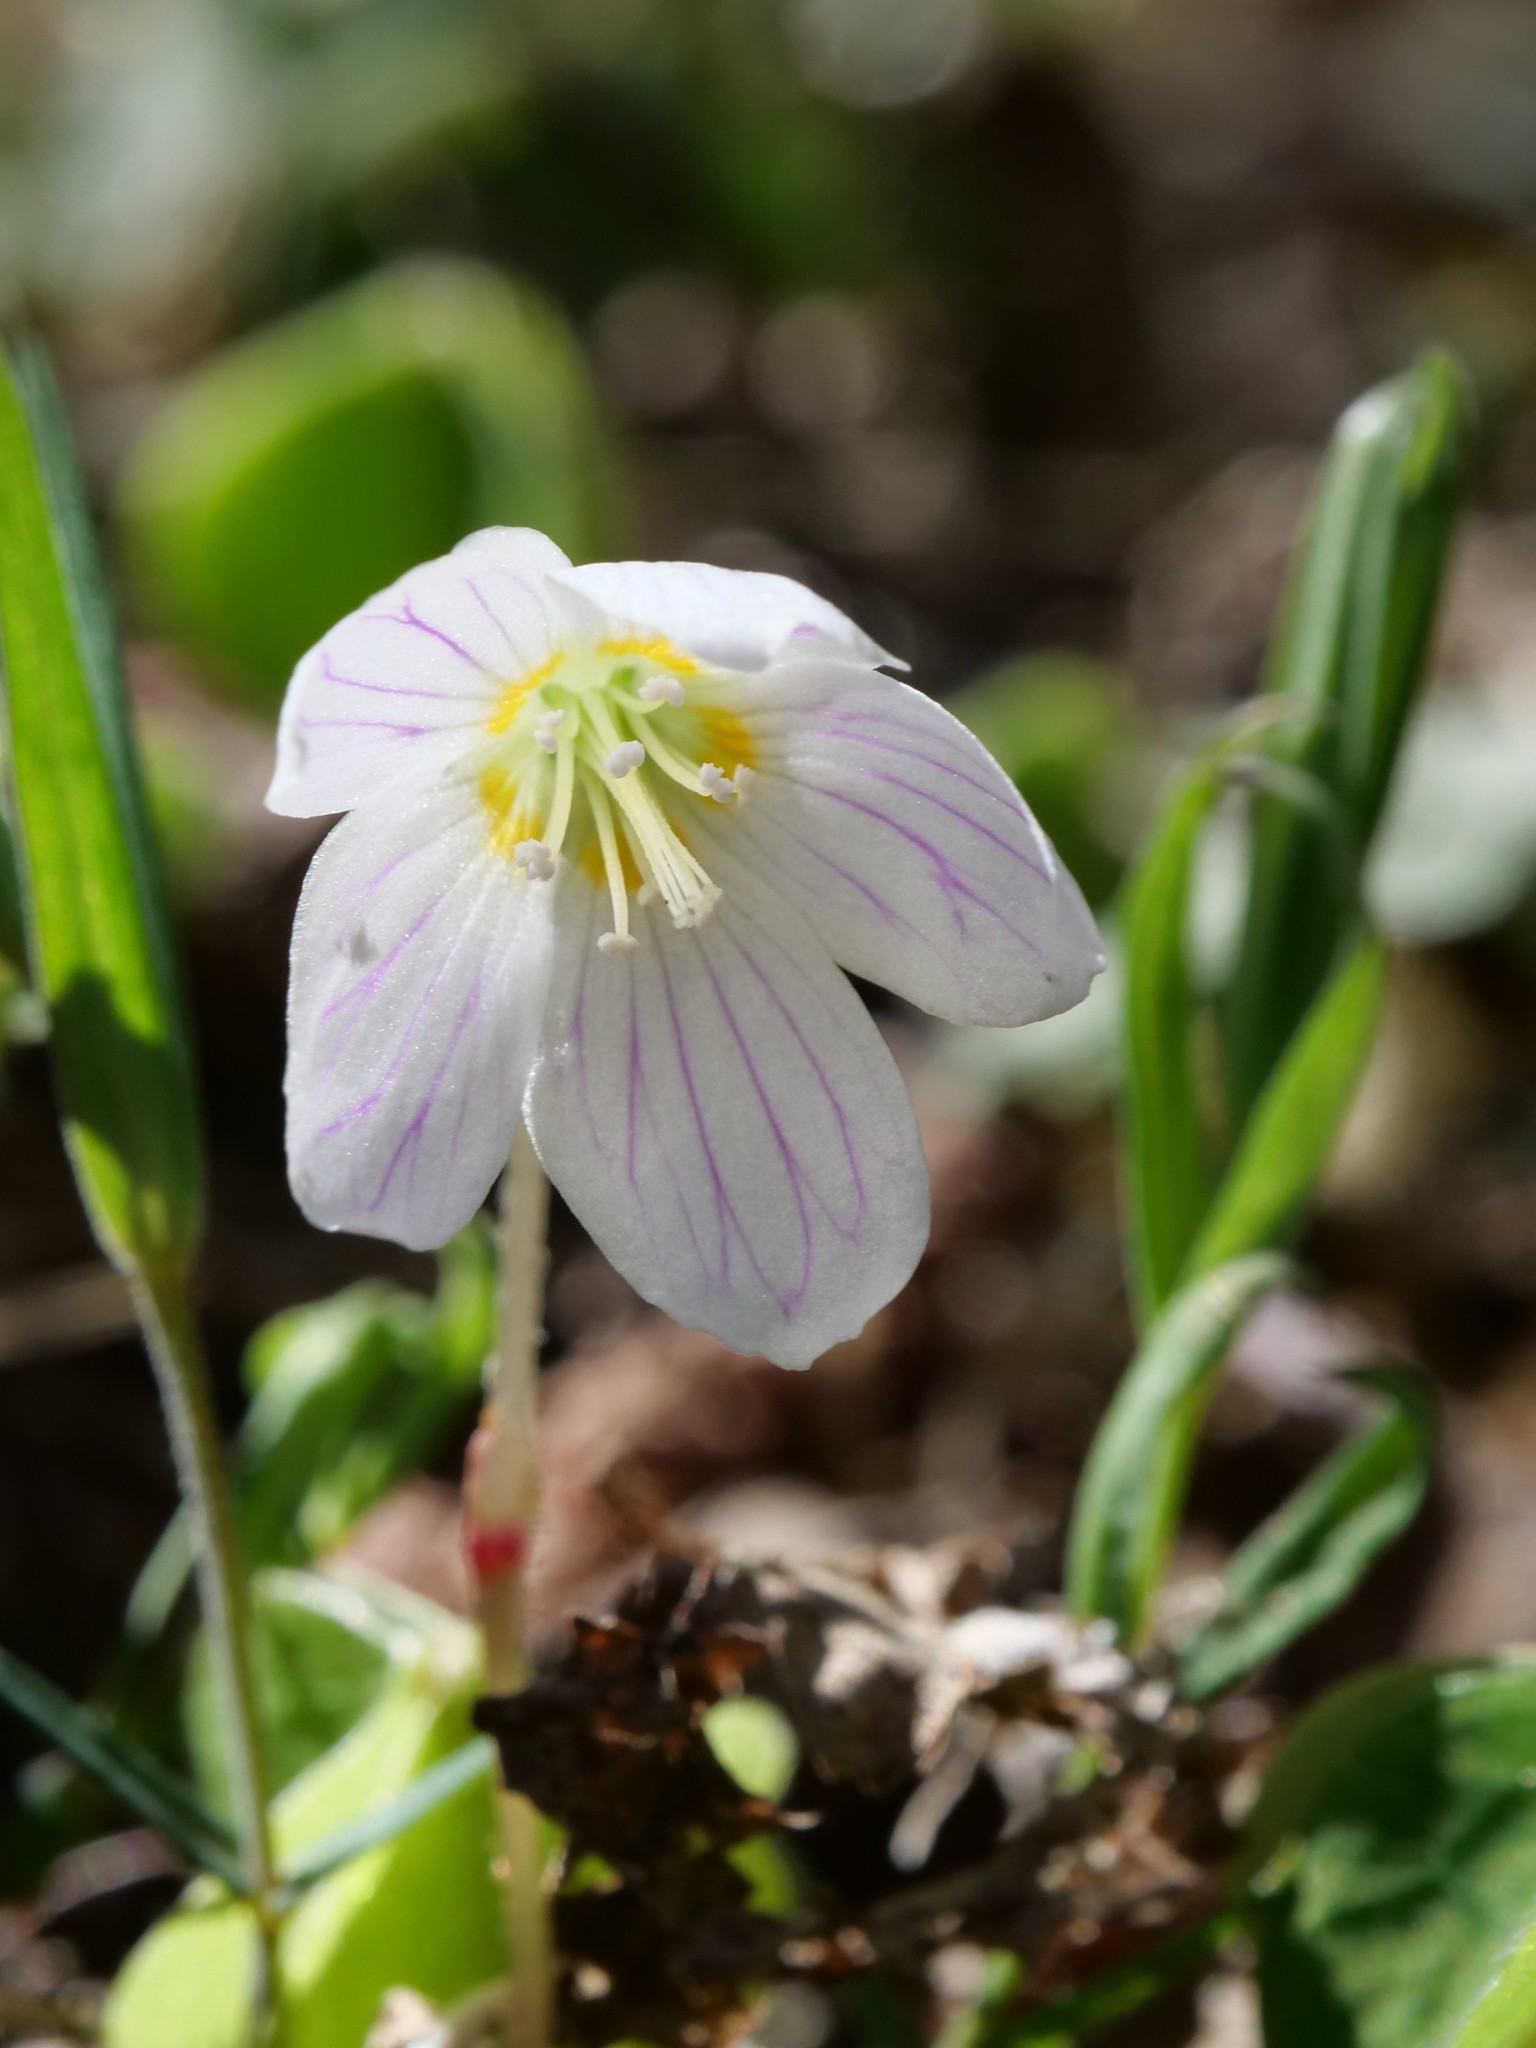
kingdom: Plantae
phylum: Tracheophyta
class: Magnoliopsida
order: Oxalidales
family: Oxalidaceae
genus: Oxalis
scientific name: Oxalis acetosella
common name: Wood-sorrel
